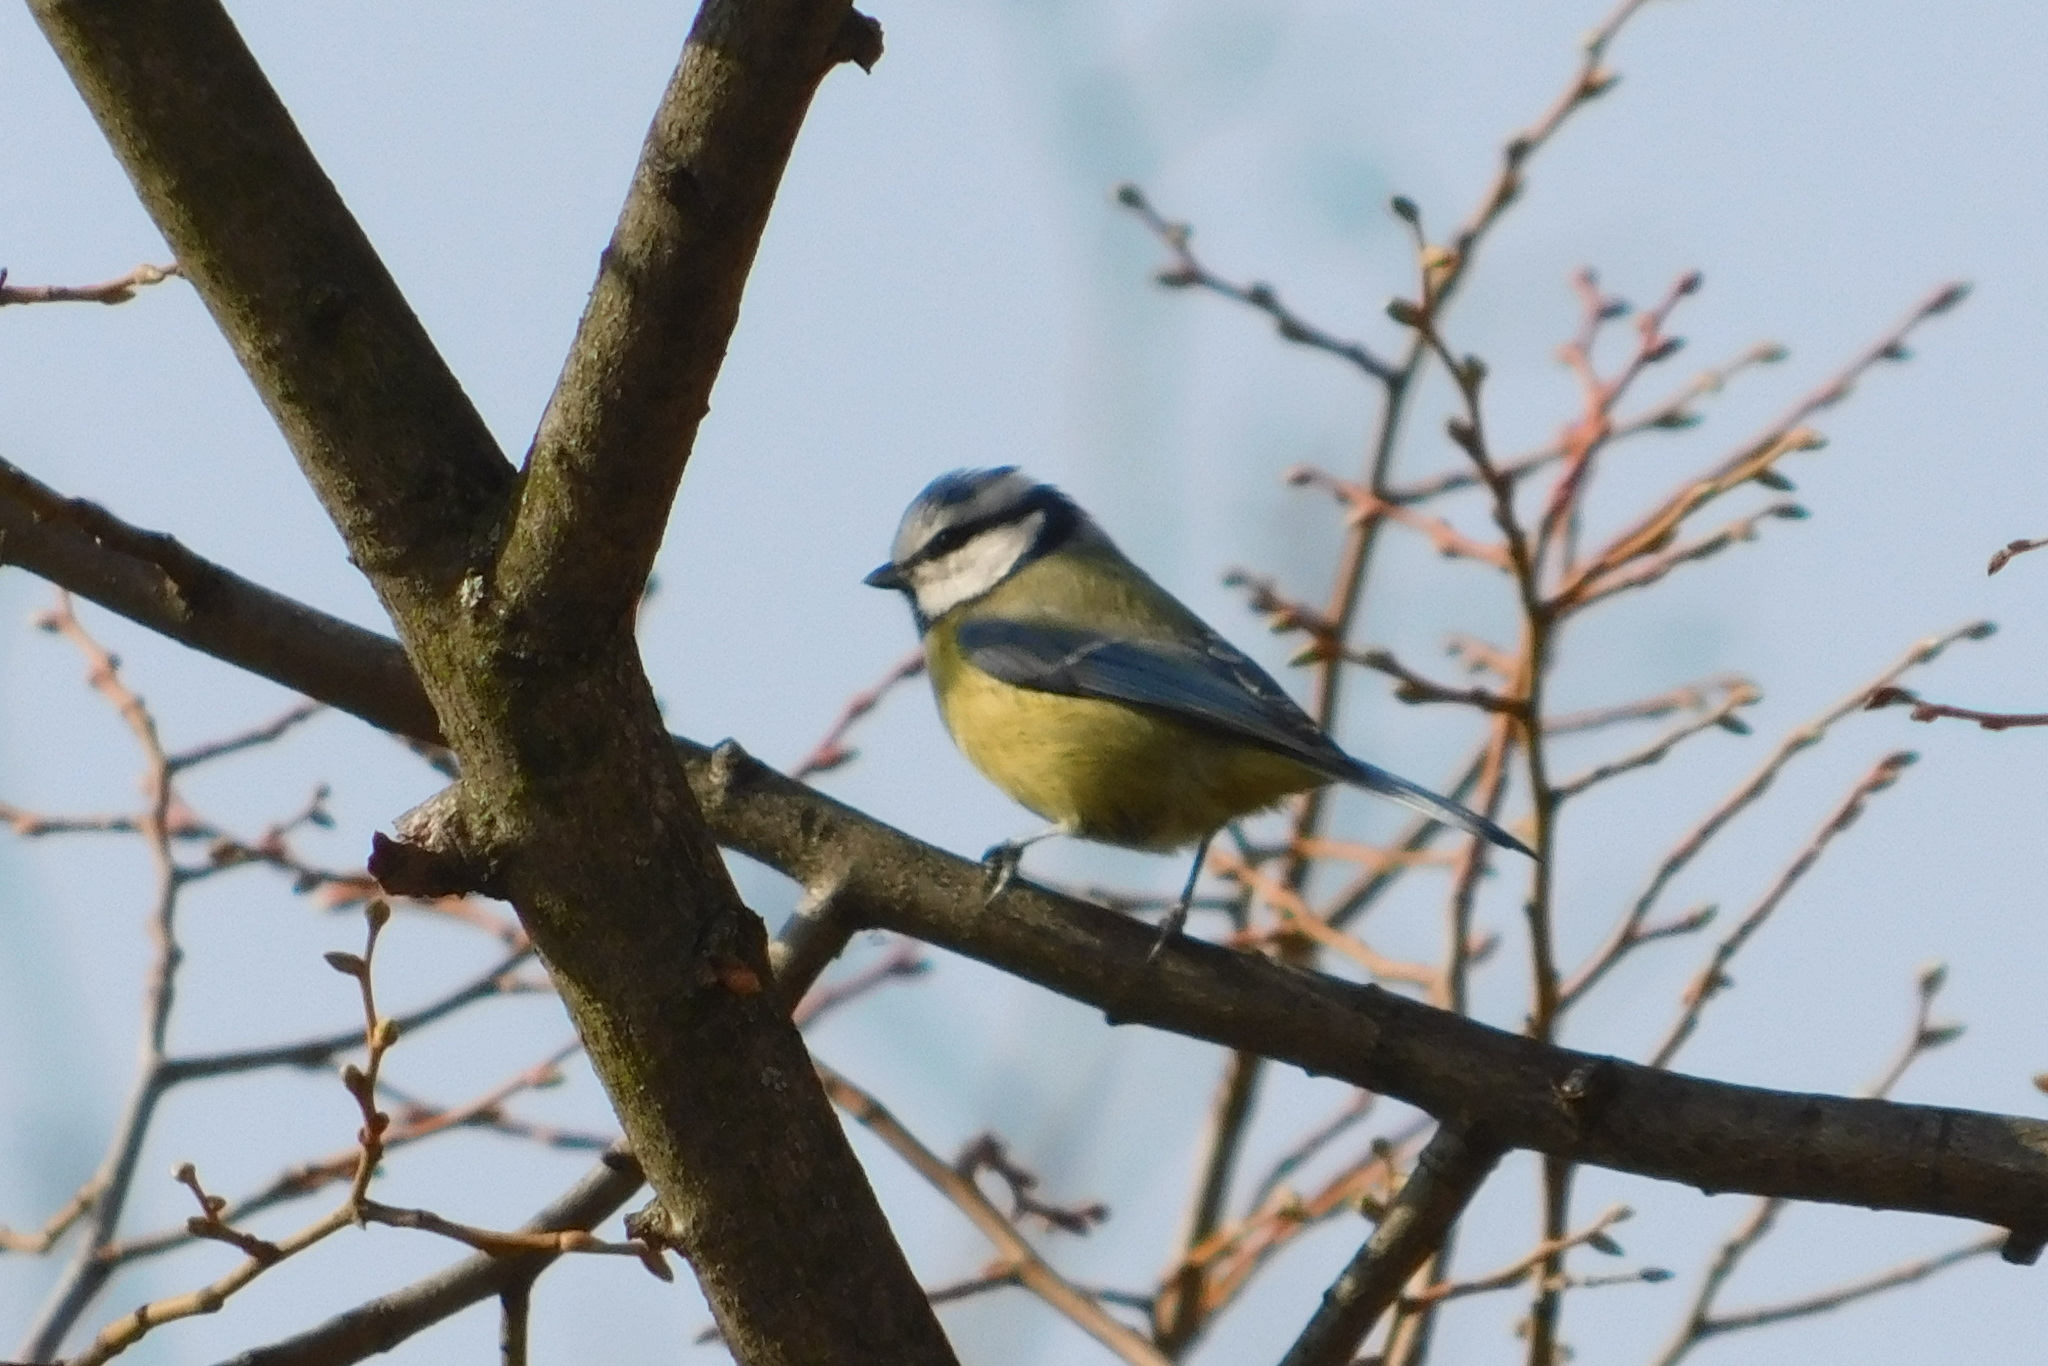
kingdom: Animalia
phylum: Chordata
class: Aves
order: Passeriformes
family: Paridae
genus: Cyanistes
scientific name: Cyanistes caeruleus
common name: Eurasian blue tit
